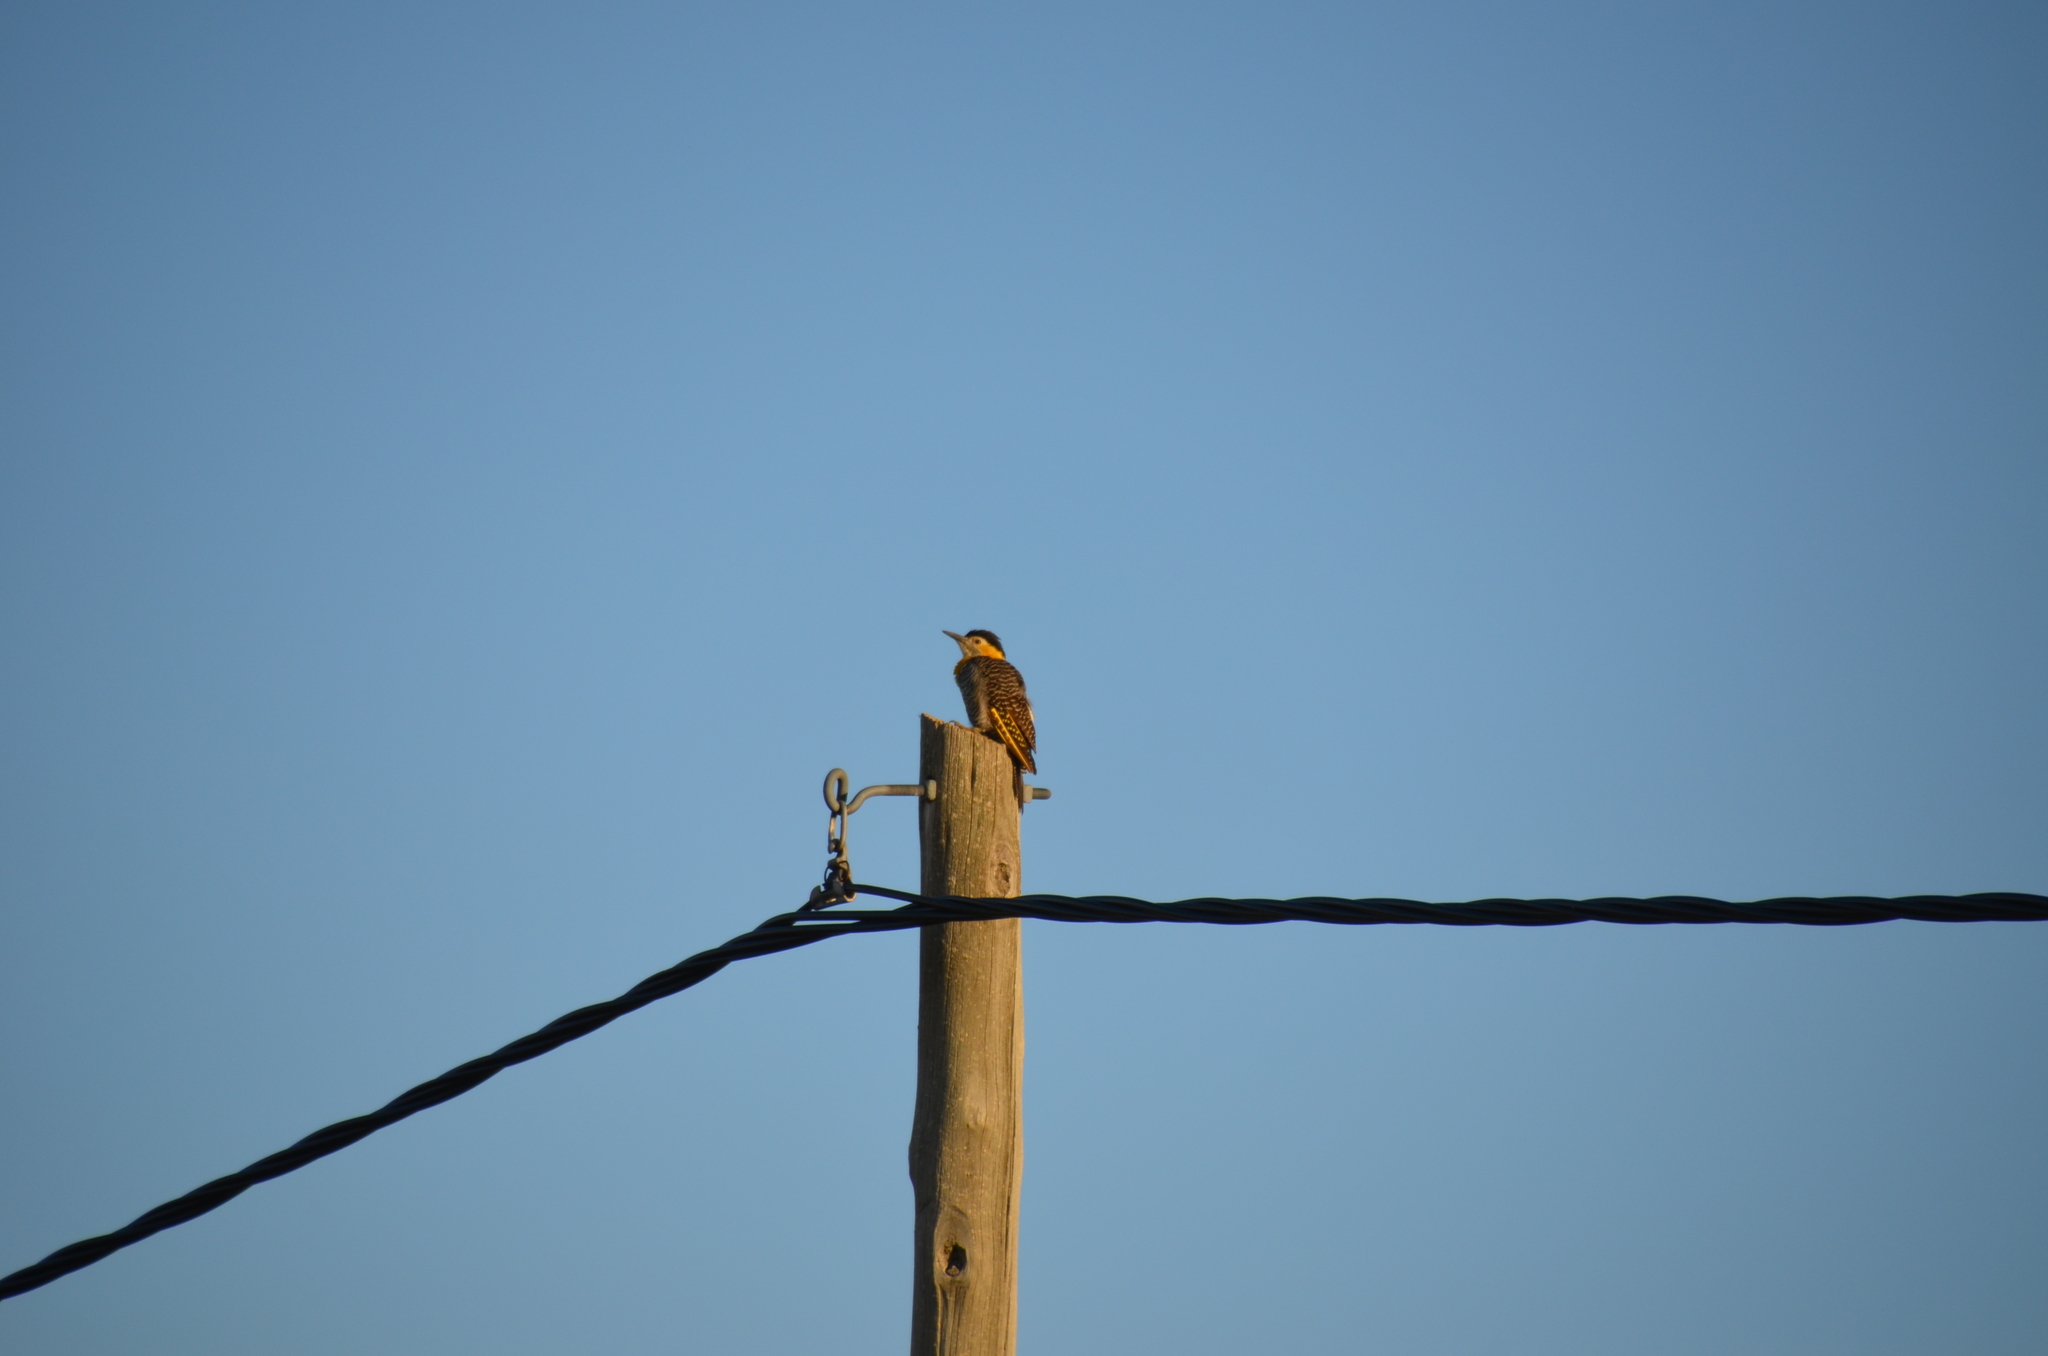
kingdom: Animalia
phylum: Chordata
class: Aves
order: Piciformes
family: Picidae
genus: Colaptes
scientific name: Colaptes campestris
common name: Campo flicker
